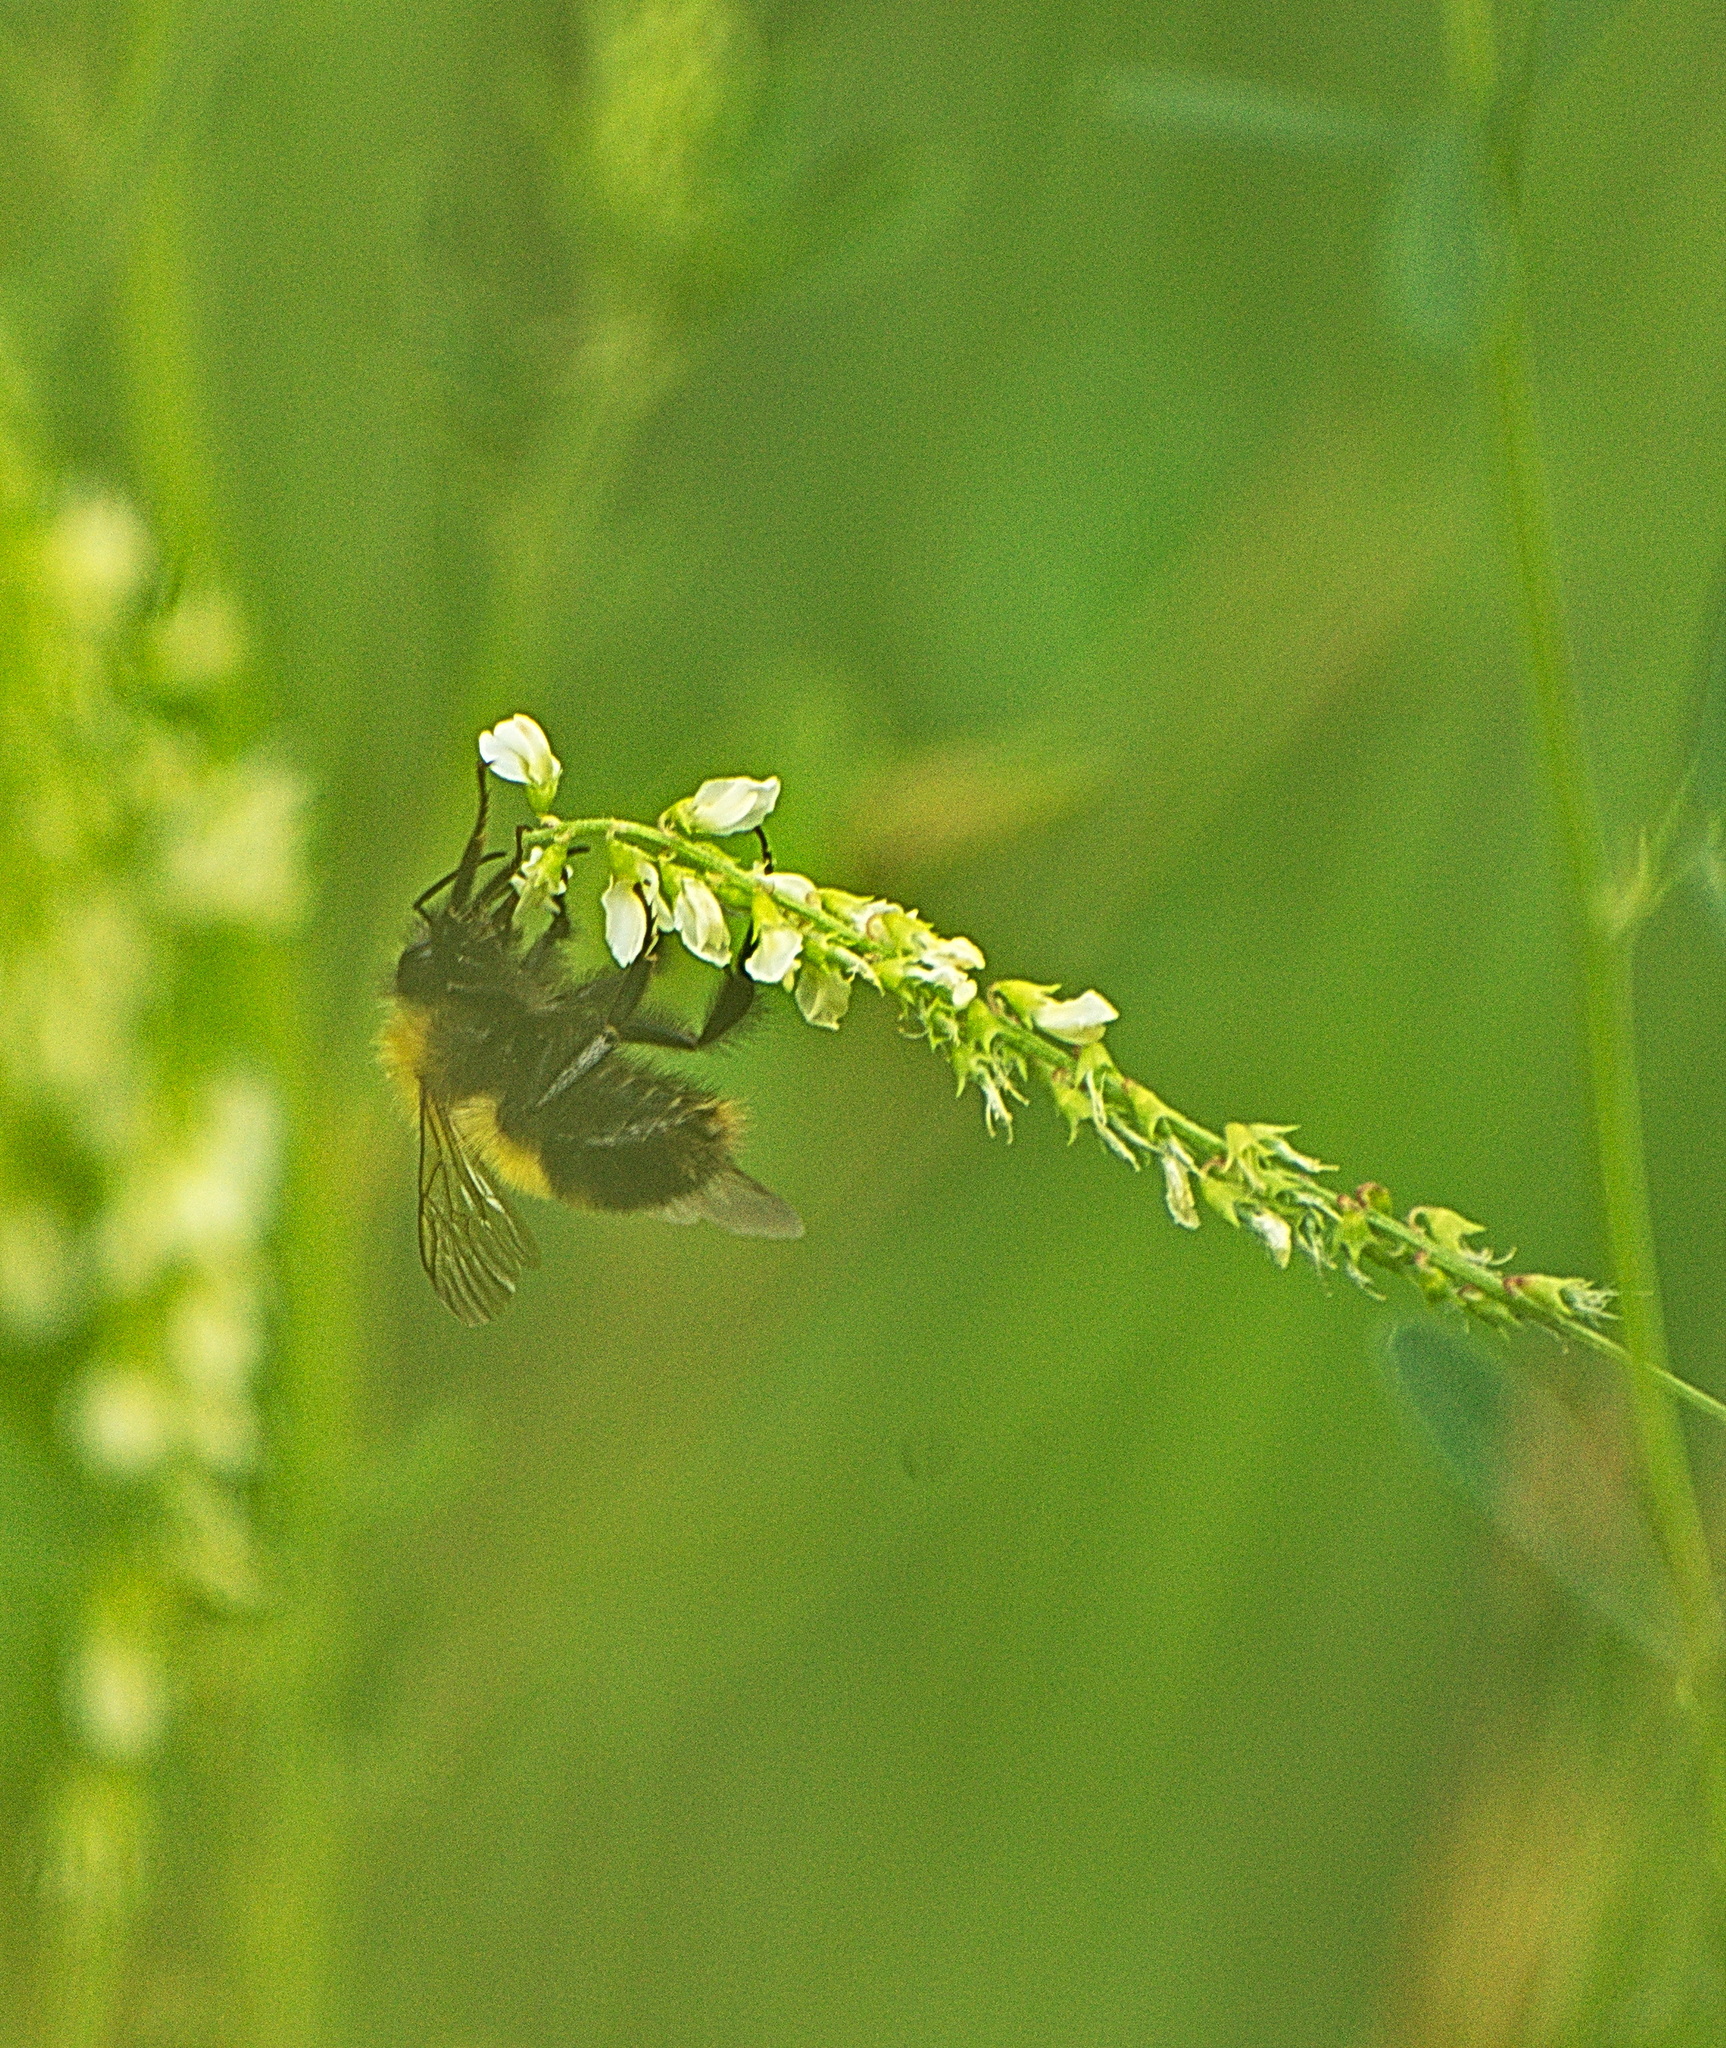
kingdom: Animalia
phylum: Arthropoda
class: Insecta
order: Hymenoptera
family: Apidae
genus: Bombus
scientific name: Bombus perplexus
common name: Confusing bumble bee
